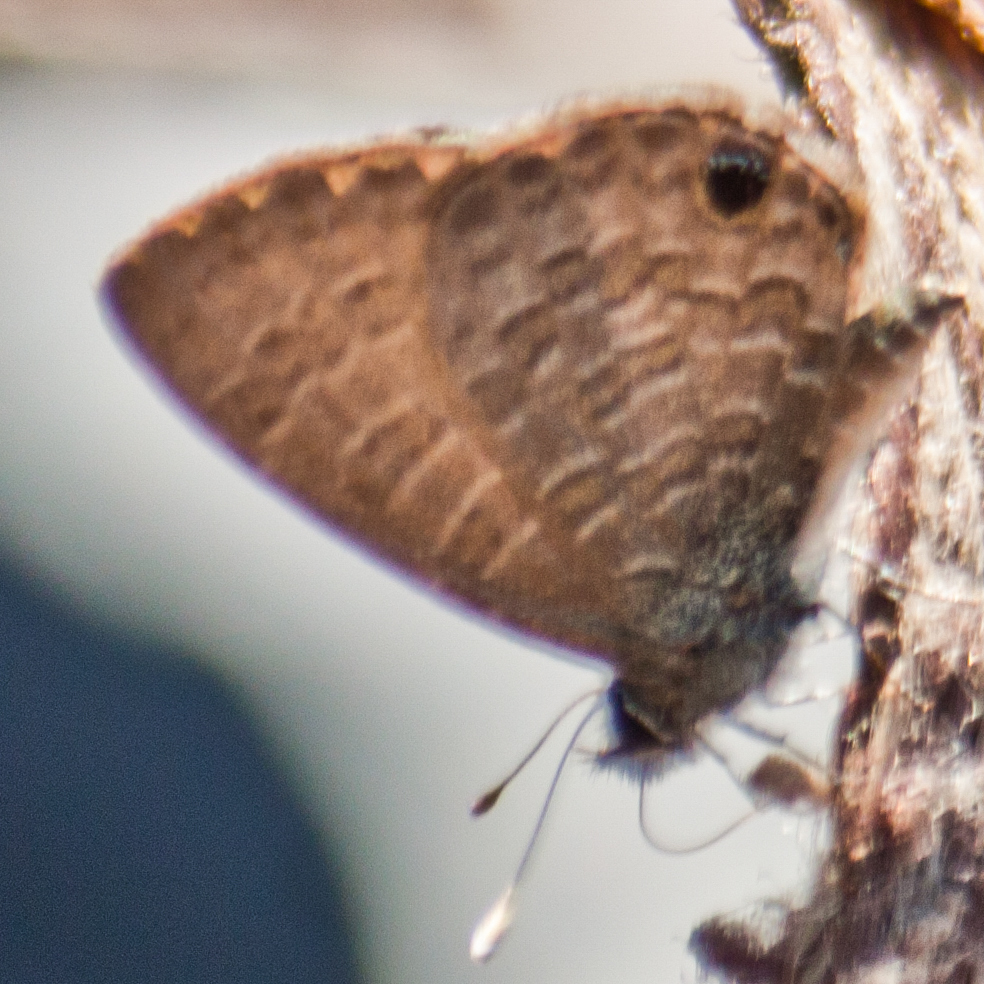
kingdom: Animalia
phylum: Arthropoda
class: Insecta
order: Lepidoptera
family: Lycaenidae
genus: Prosotas
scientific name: Prosotas dubiosa
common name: Tailless lineblue
